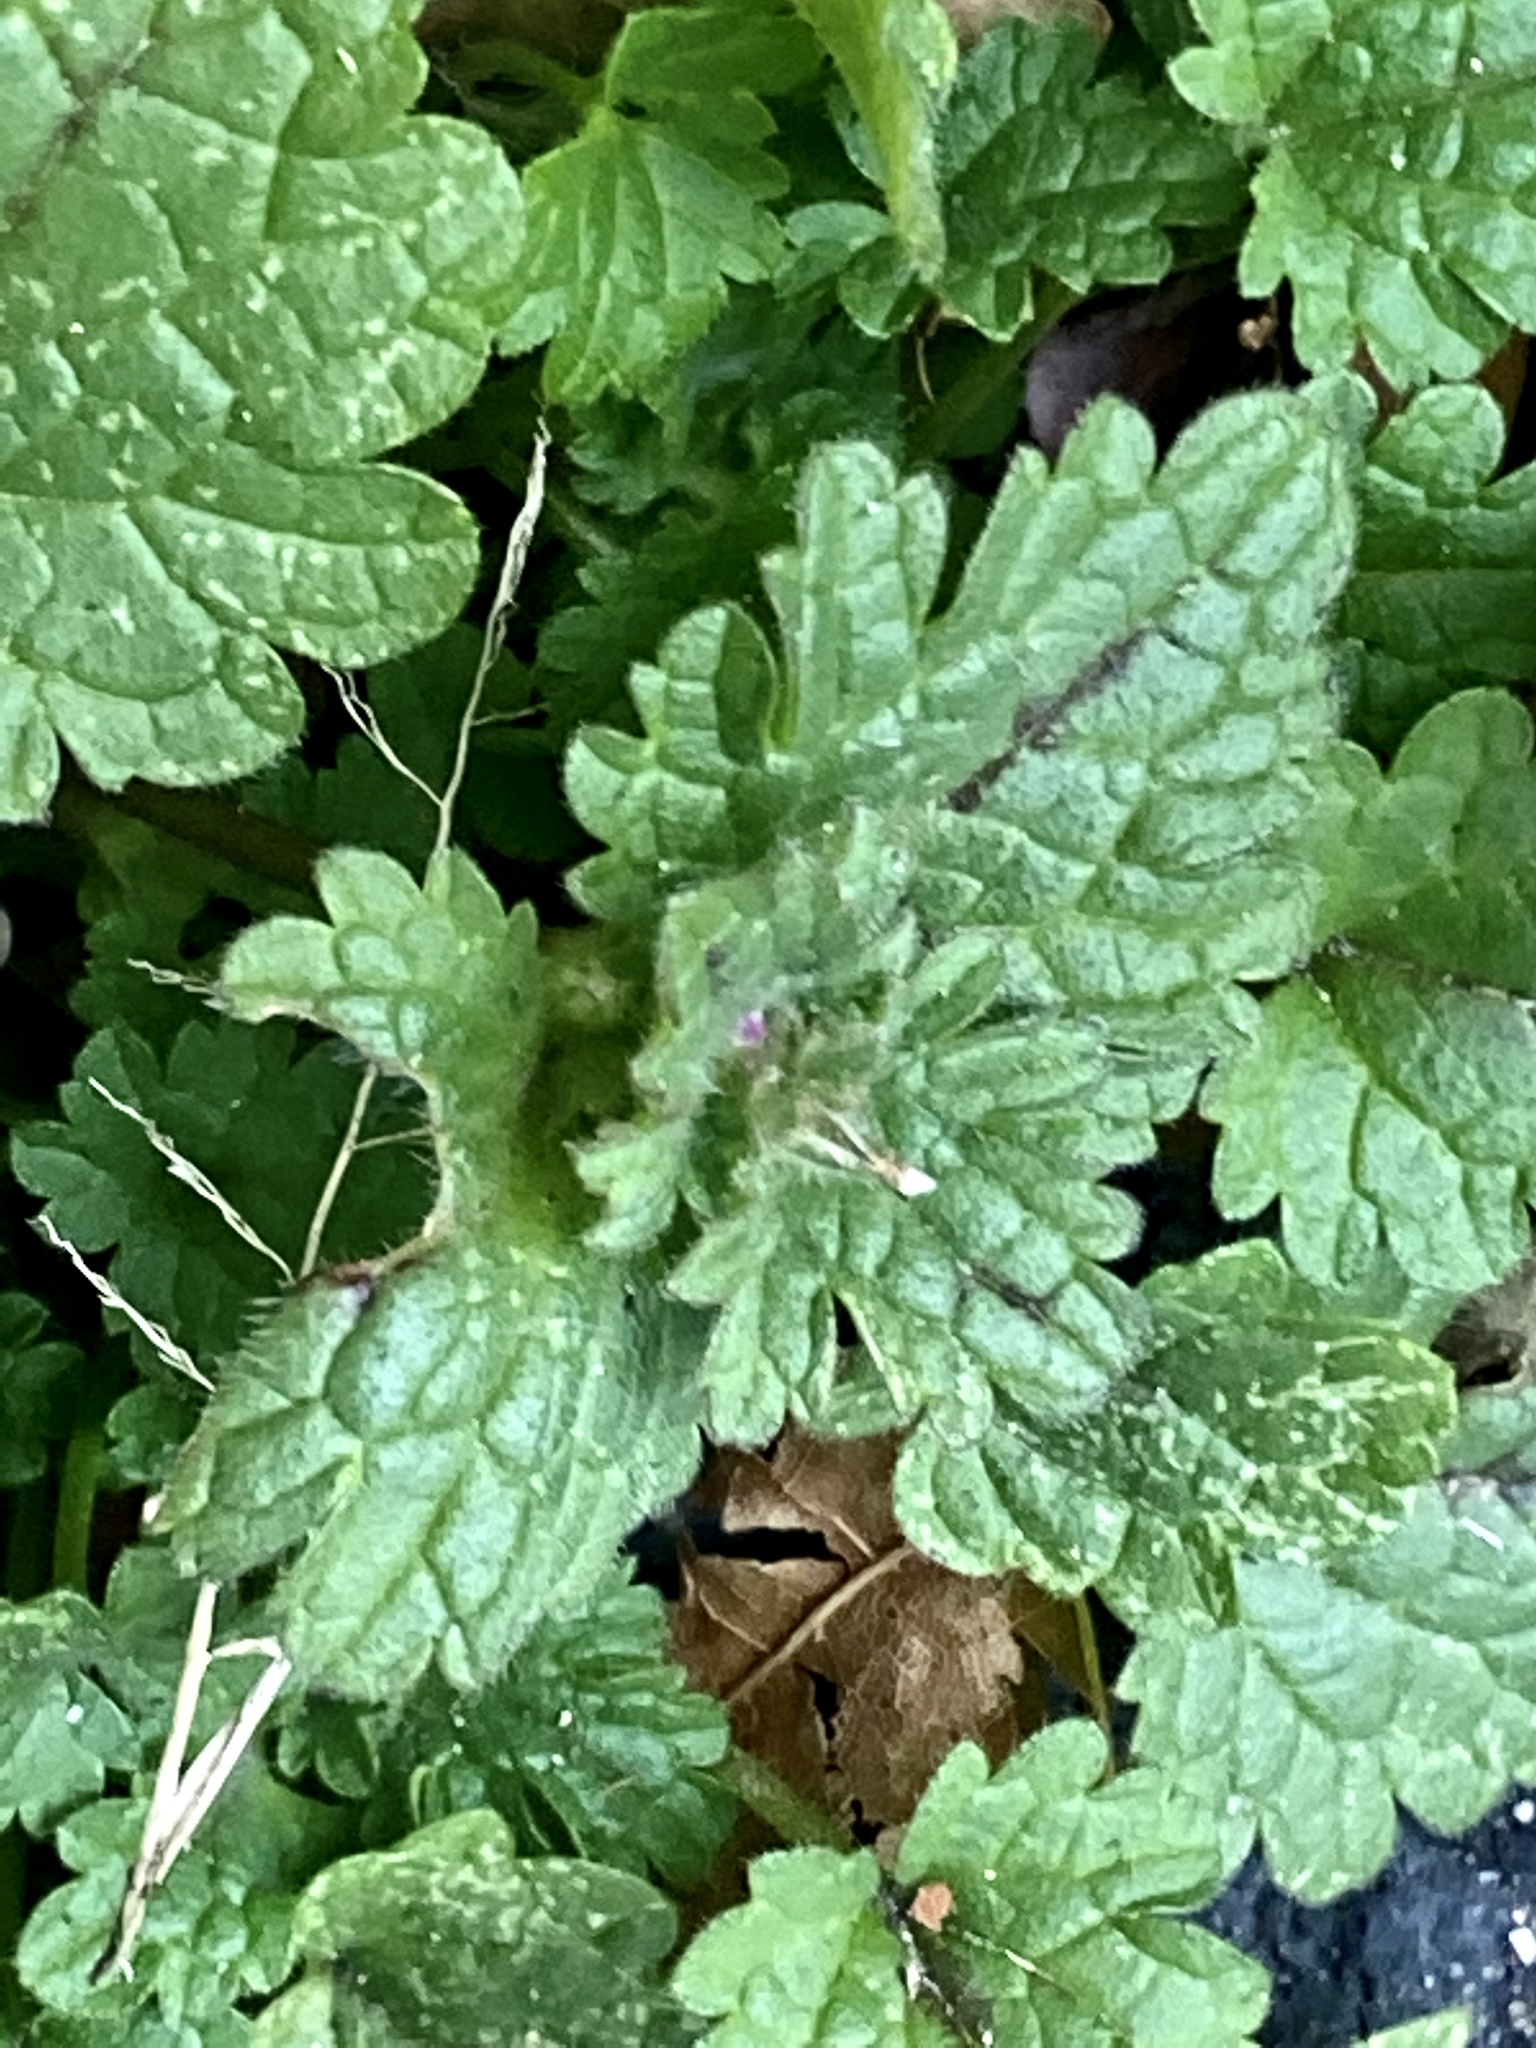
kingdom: Plantae
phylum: Tracheophyta
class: Magnoliopsida
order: Lamiales
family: Lamiaceae
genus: Lamium
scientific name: Lamium amplexicaule
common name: Henbit dead-nettle
